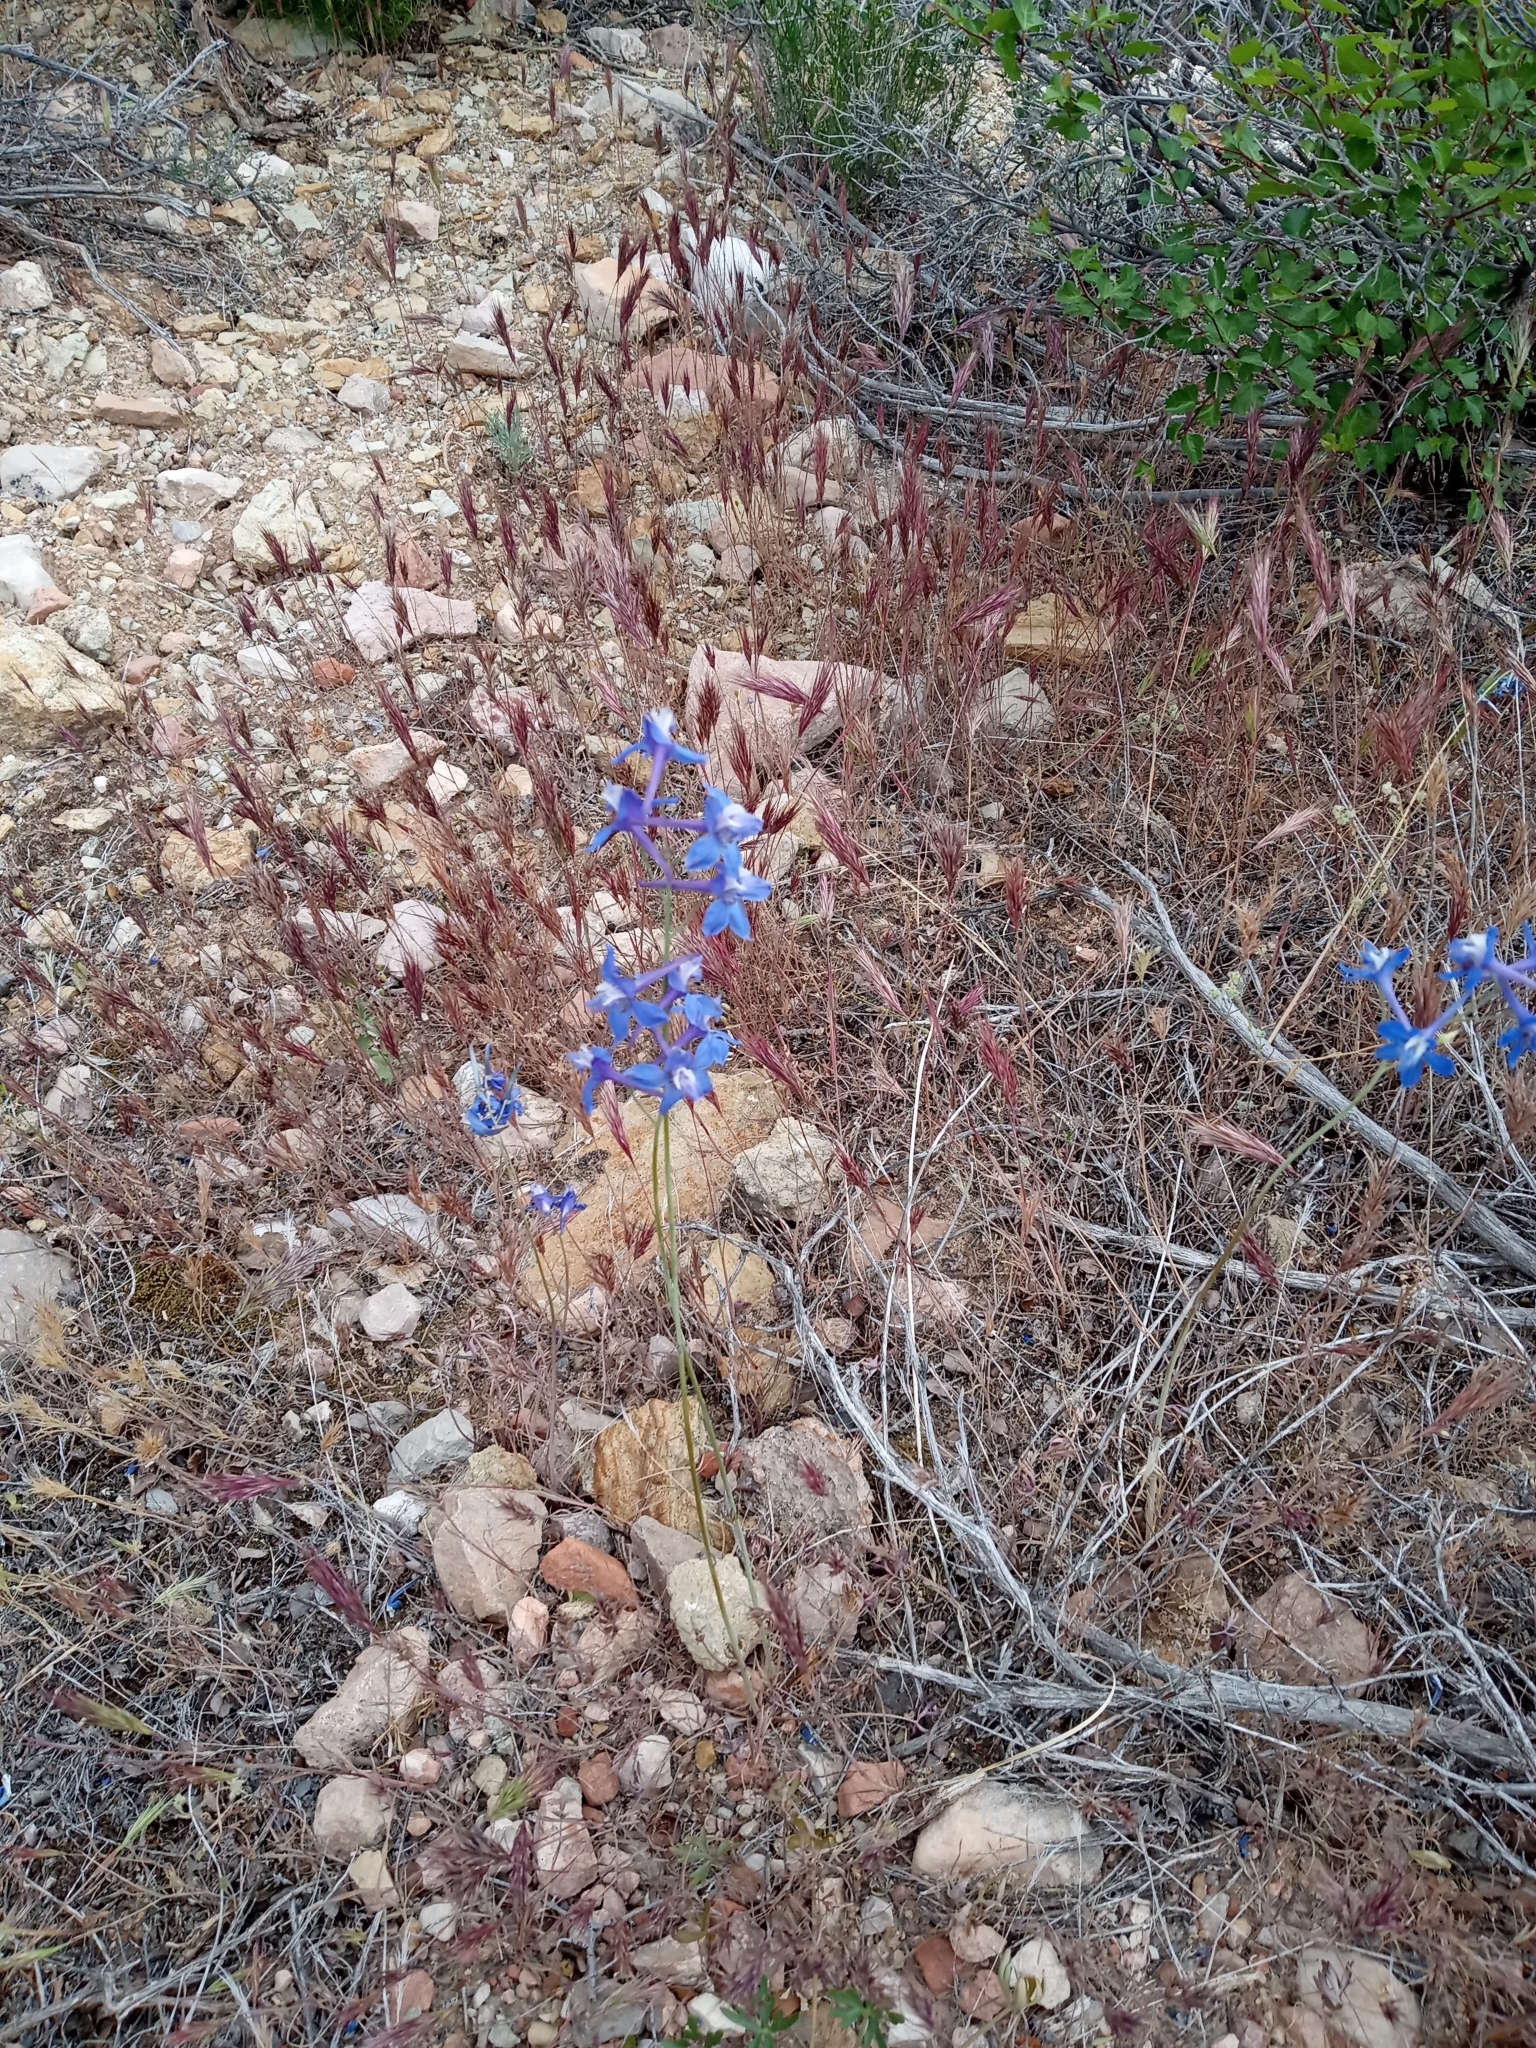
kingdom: Plantae
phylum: Tracheophyta
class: Magnoliopsida
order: Ranunculales
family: Ranunculaceae
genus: Delphinium
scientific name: Delphinium scaposum
